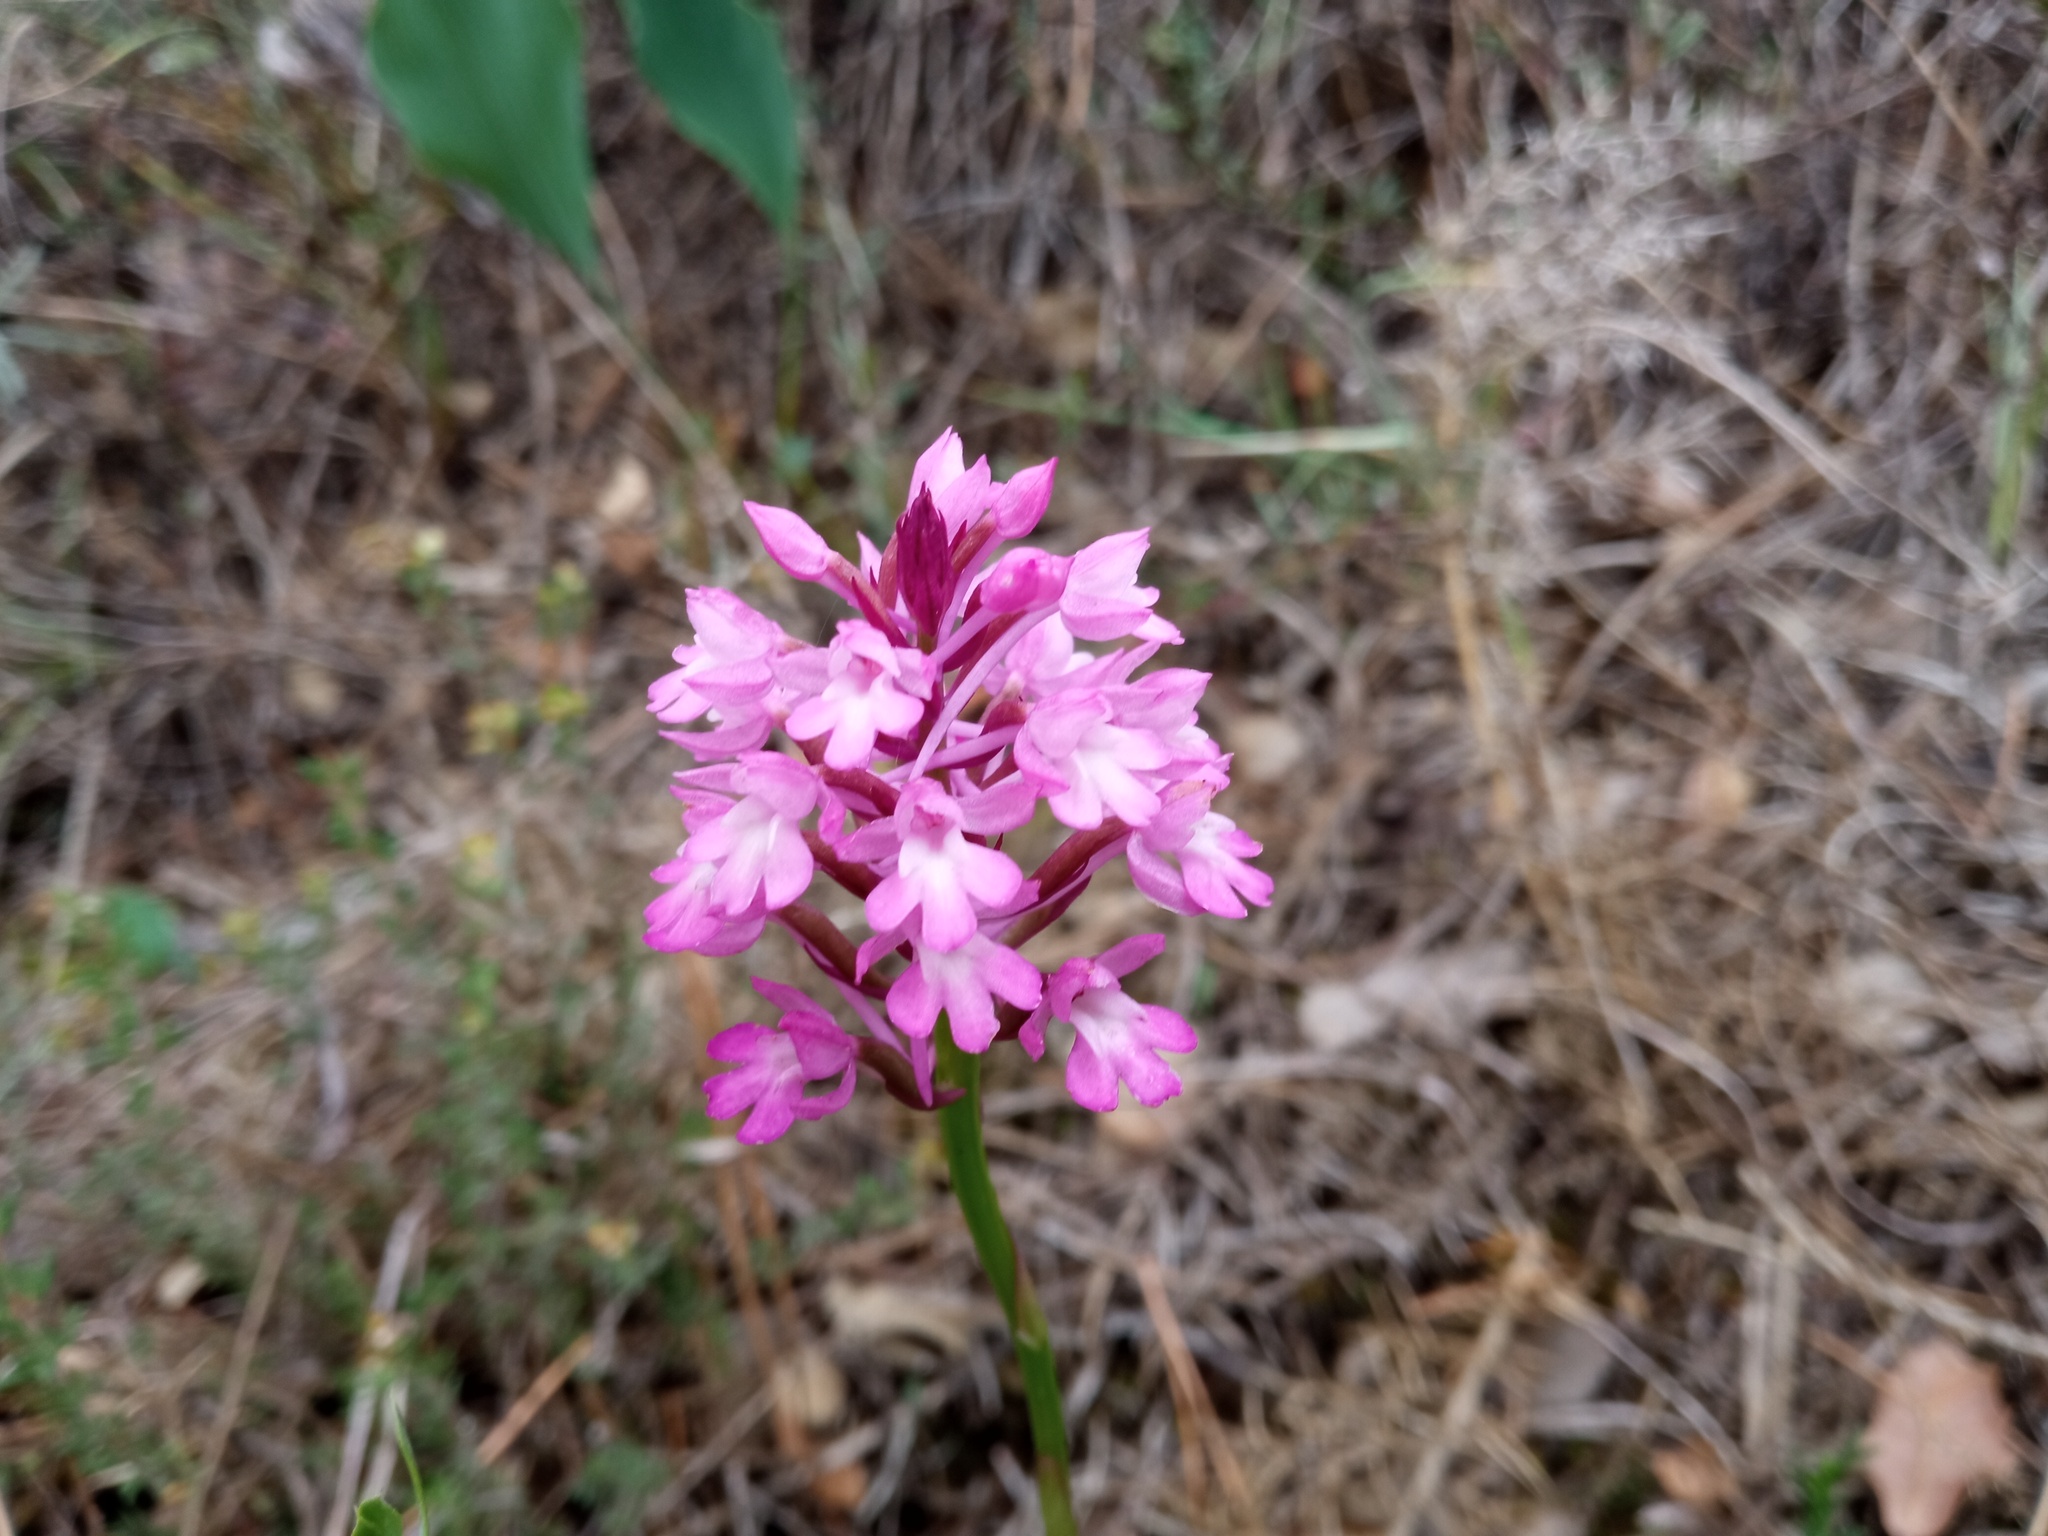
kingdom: Plantae
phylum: Tracheophyta
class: Liliopsida
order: Asparagales
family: Orchidaceae
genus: Anacamptis
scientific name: Anacamptis pyramidalis
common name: Pyramidal orchid
